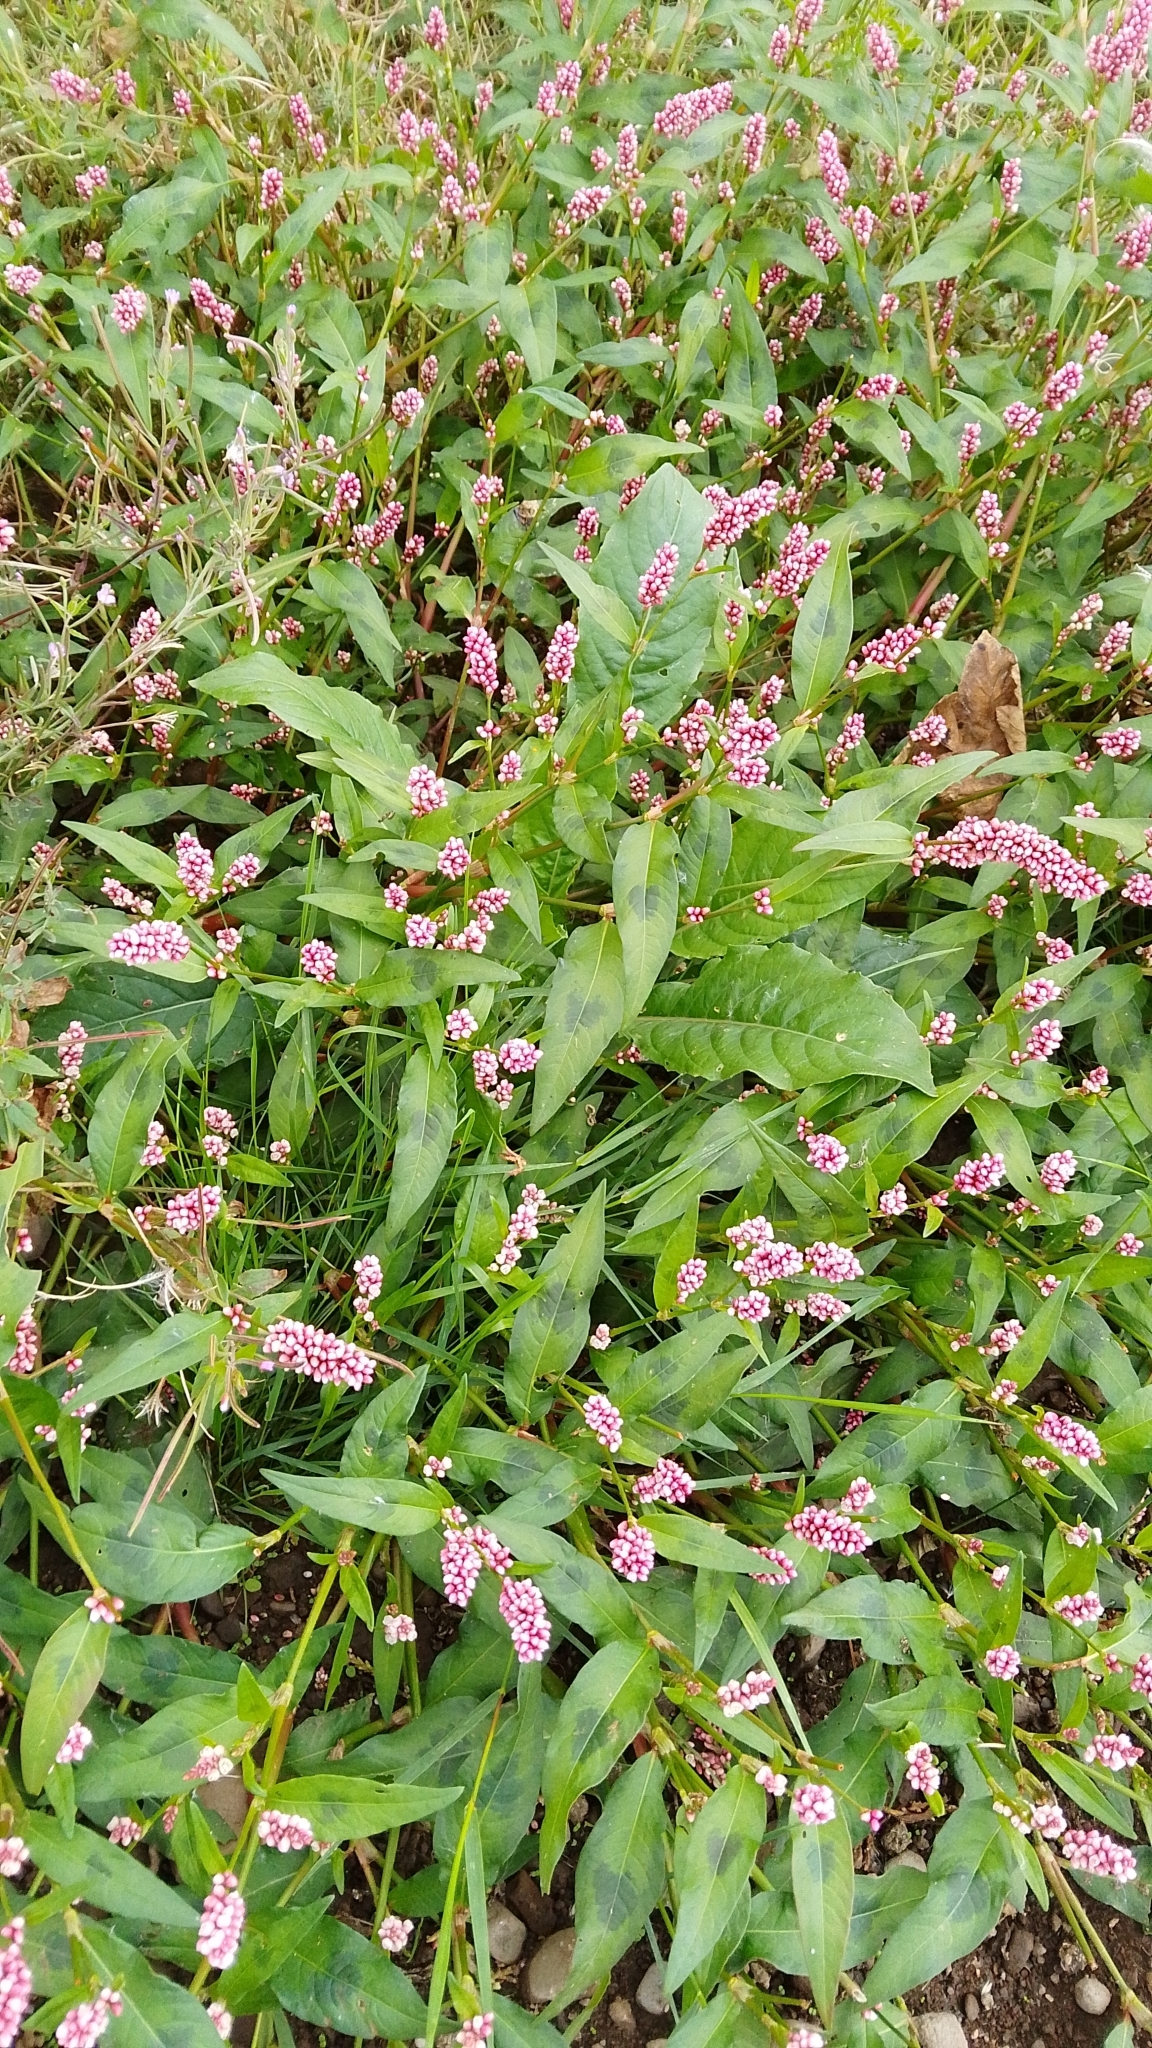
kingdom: Plantae
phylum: Tracheophyta
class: Magnoliopsida
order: Caryophyllales
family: Polygonaceae
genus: Persicaria
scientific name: Persicaria maculosa
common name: Redshank
